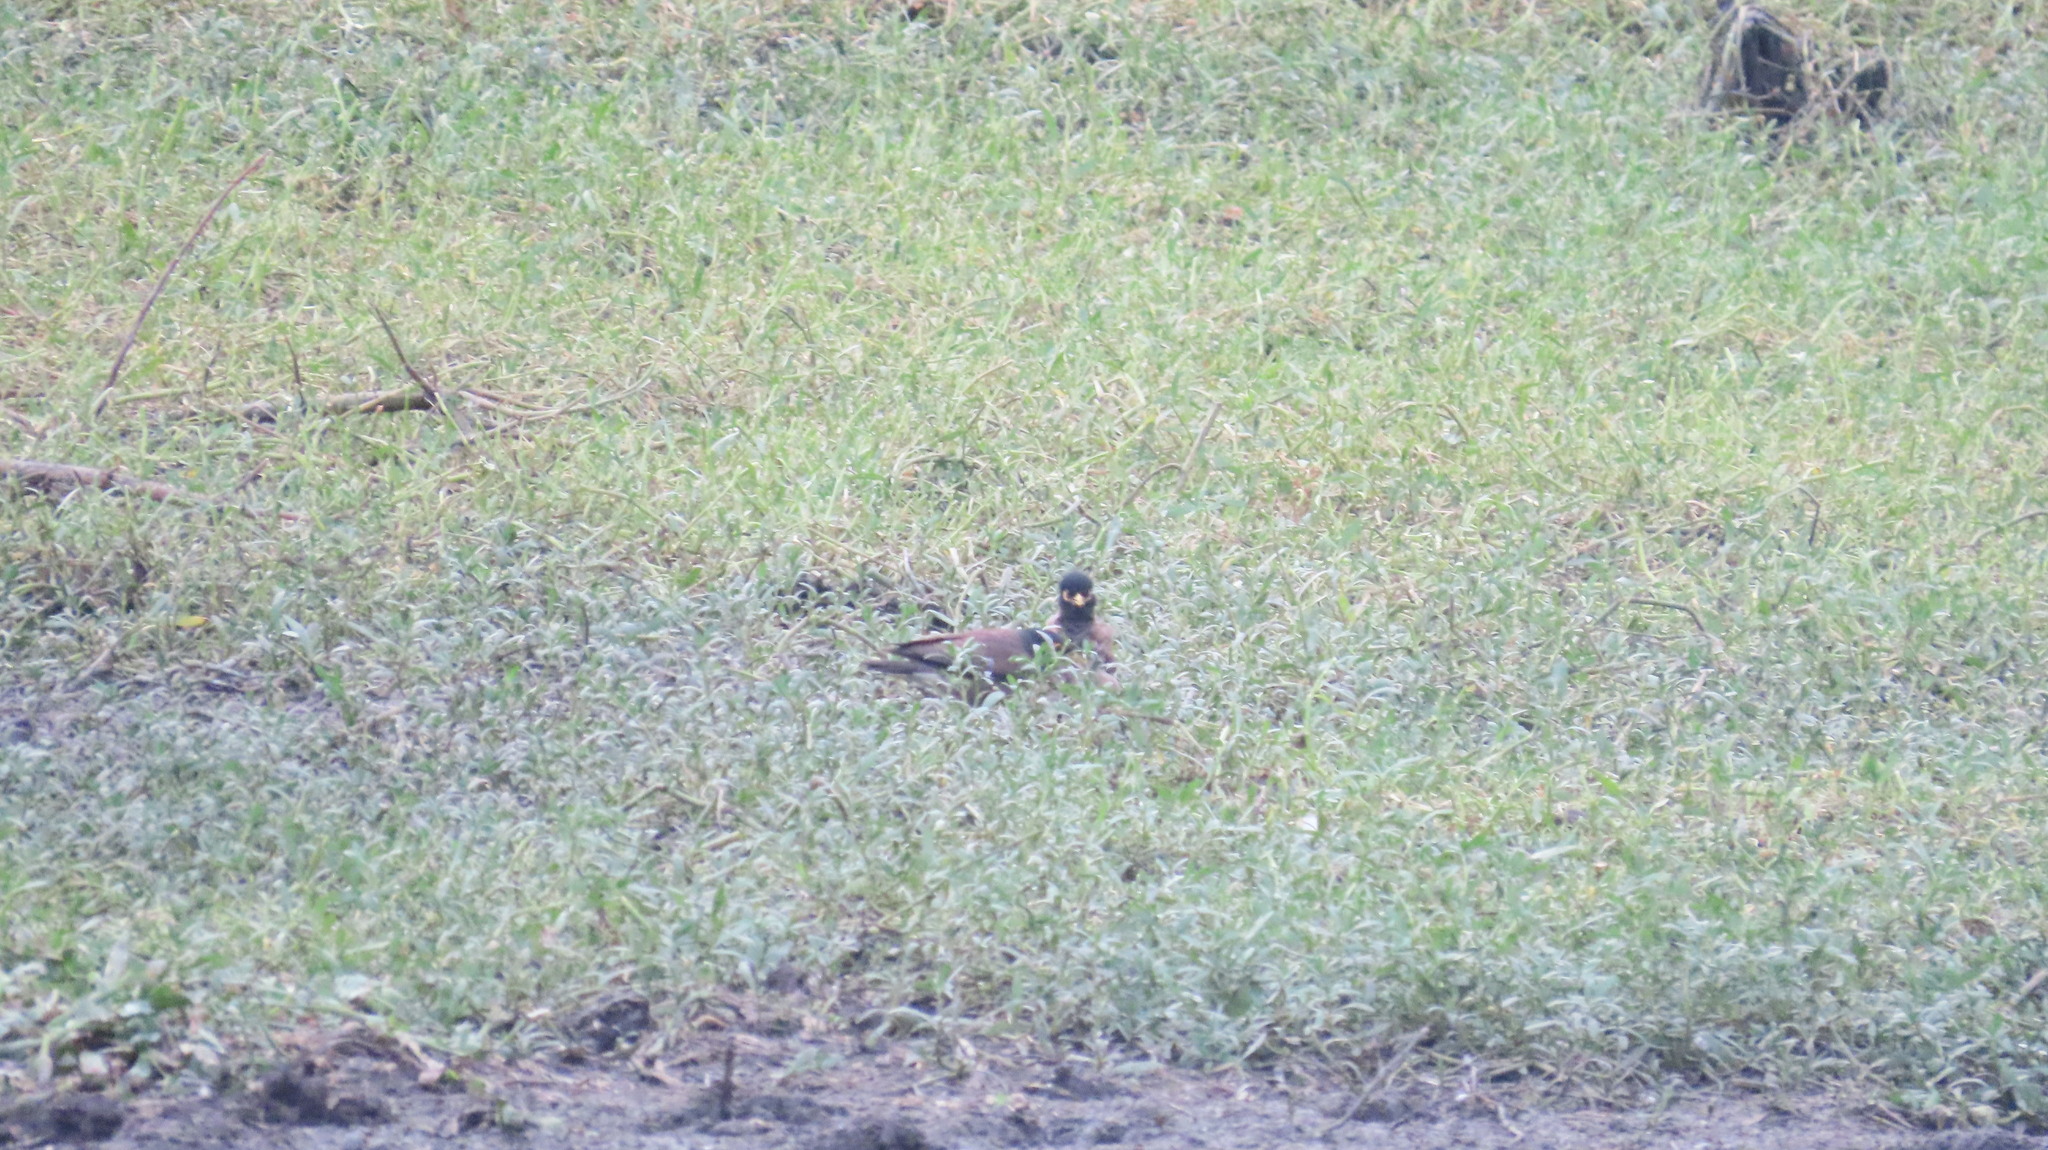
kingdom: Animalia
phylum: Chordata
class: Aves
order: Passeriformes
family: Sturnidae
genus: Acridotheres
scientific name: Acridotheres tristis
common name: Common myna
